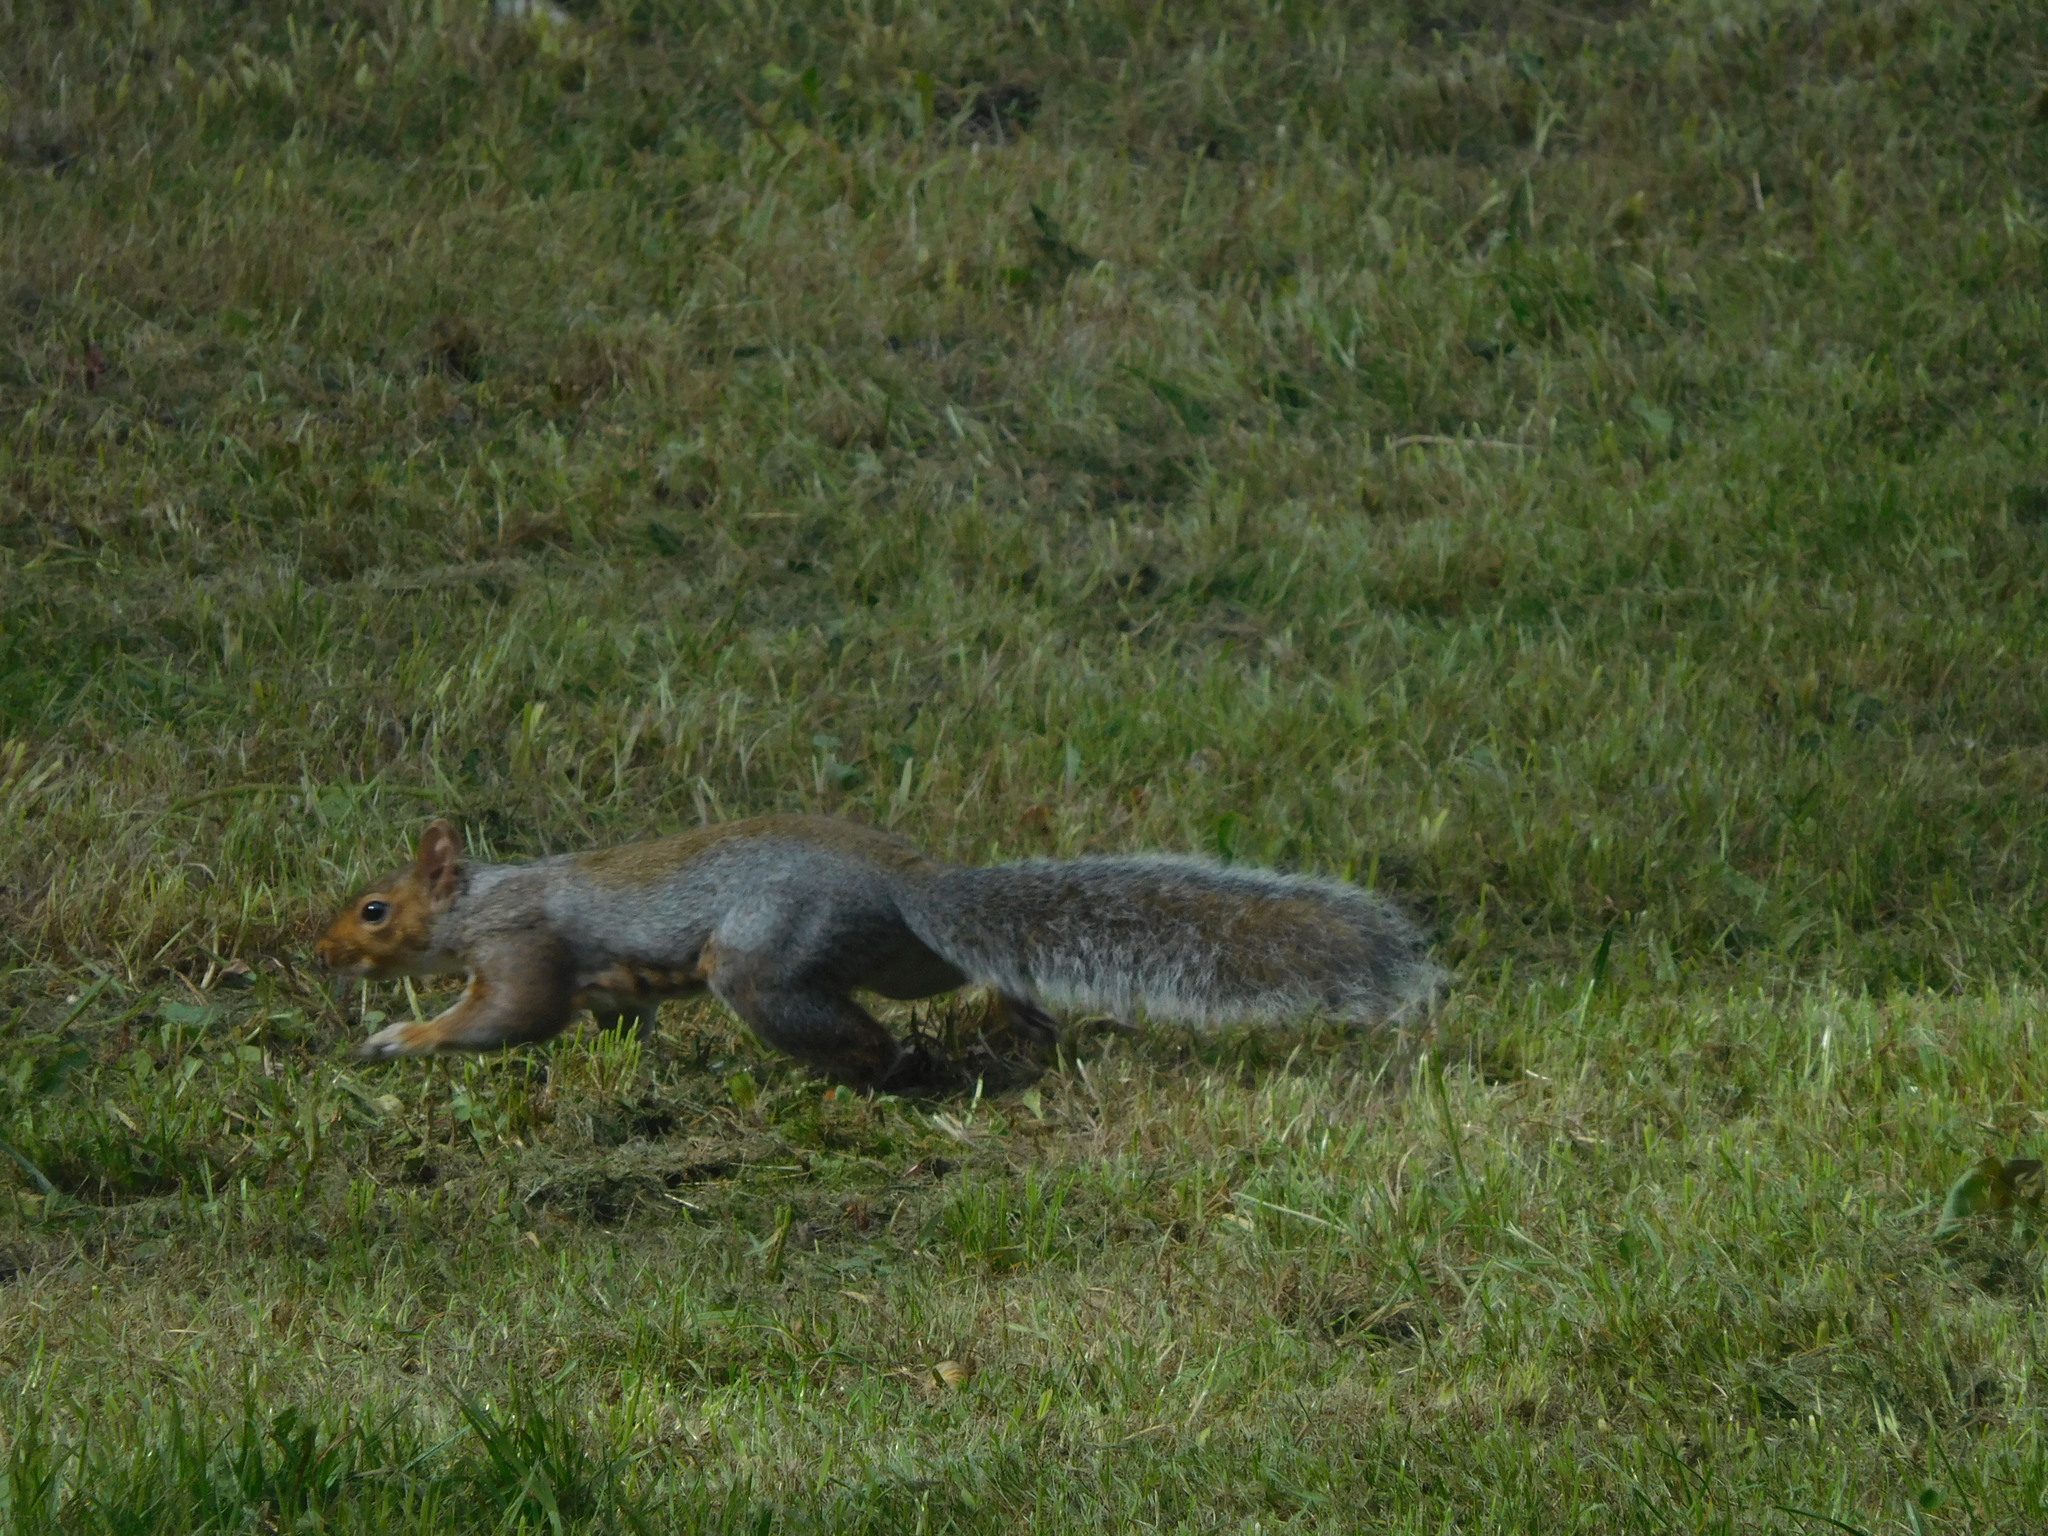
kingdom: Animalia
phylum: Chordata
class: Mammalia
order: Rodentia
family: Sciuridae
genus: Sciurus
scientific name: Sciurus carolinensis
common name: Eastern gray squirrel
